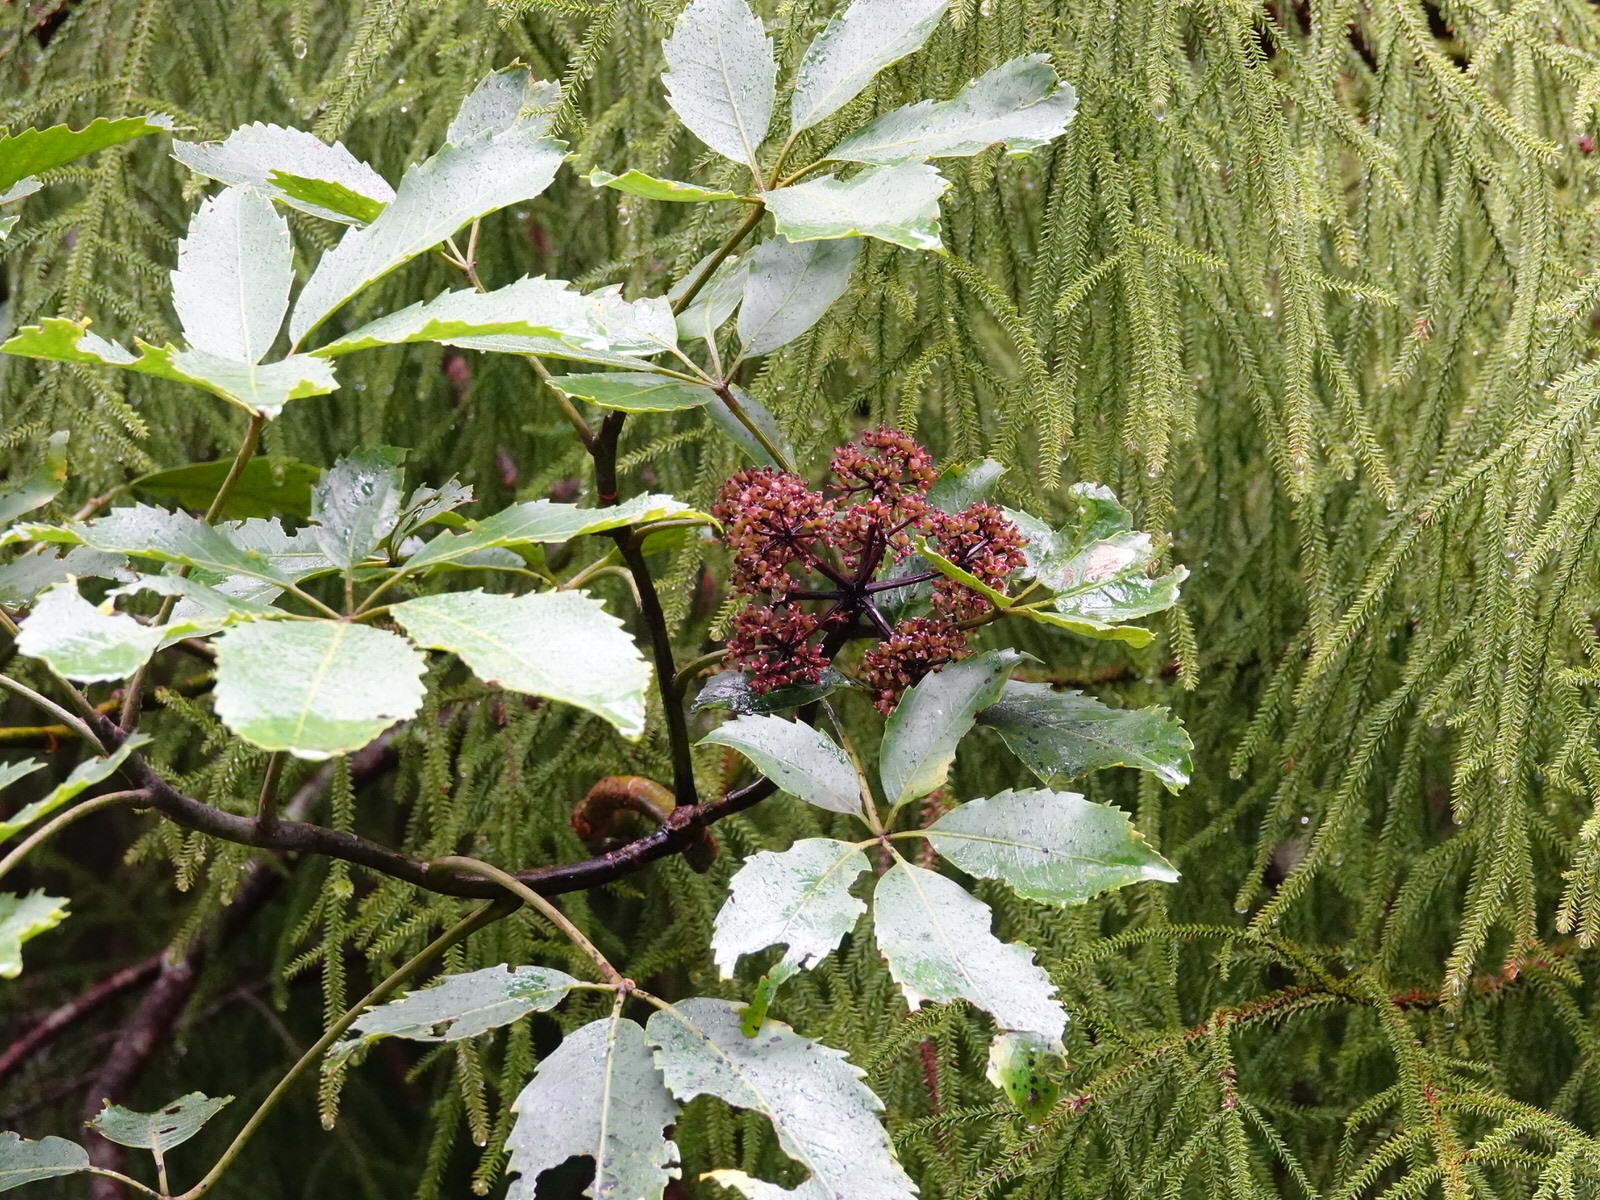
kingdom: Plantae
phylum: Tracheophyta
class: Magnoliopsida
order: Apiales
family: Araliaceae
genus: Neopanax
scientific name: Neopanax arboreus
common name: Five-fingers
